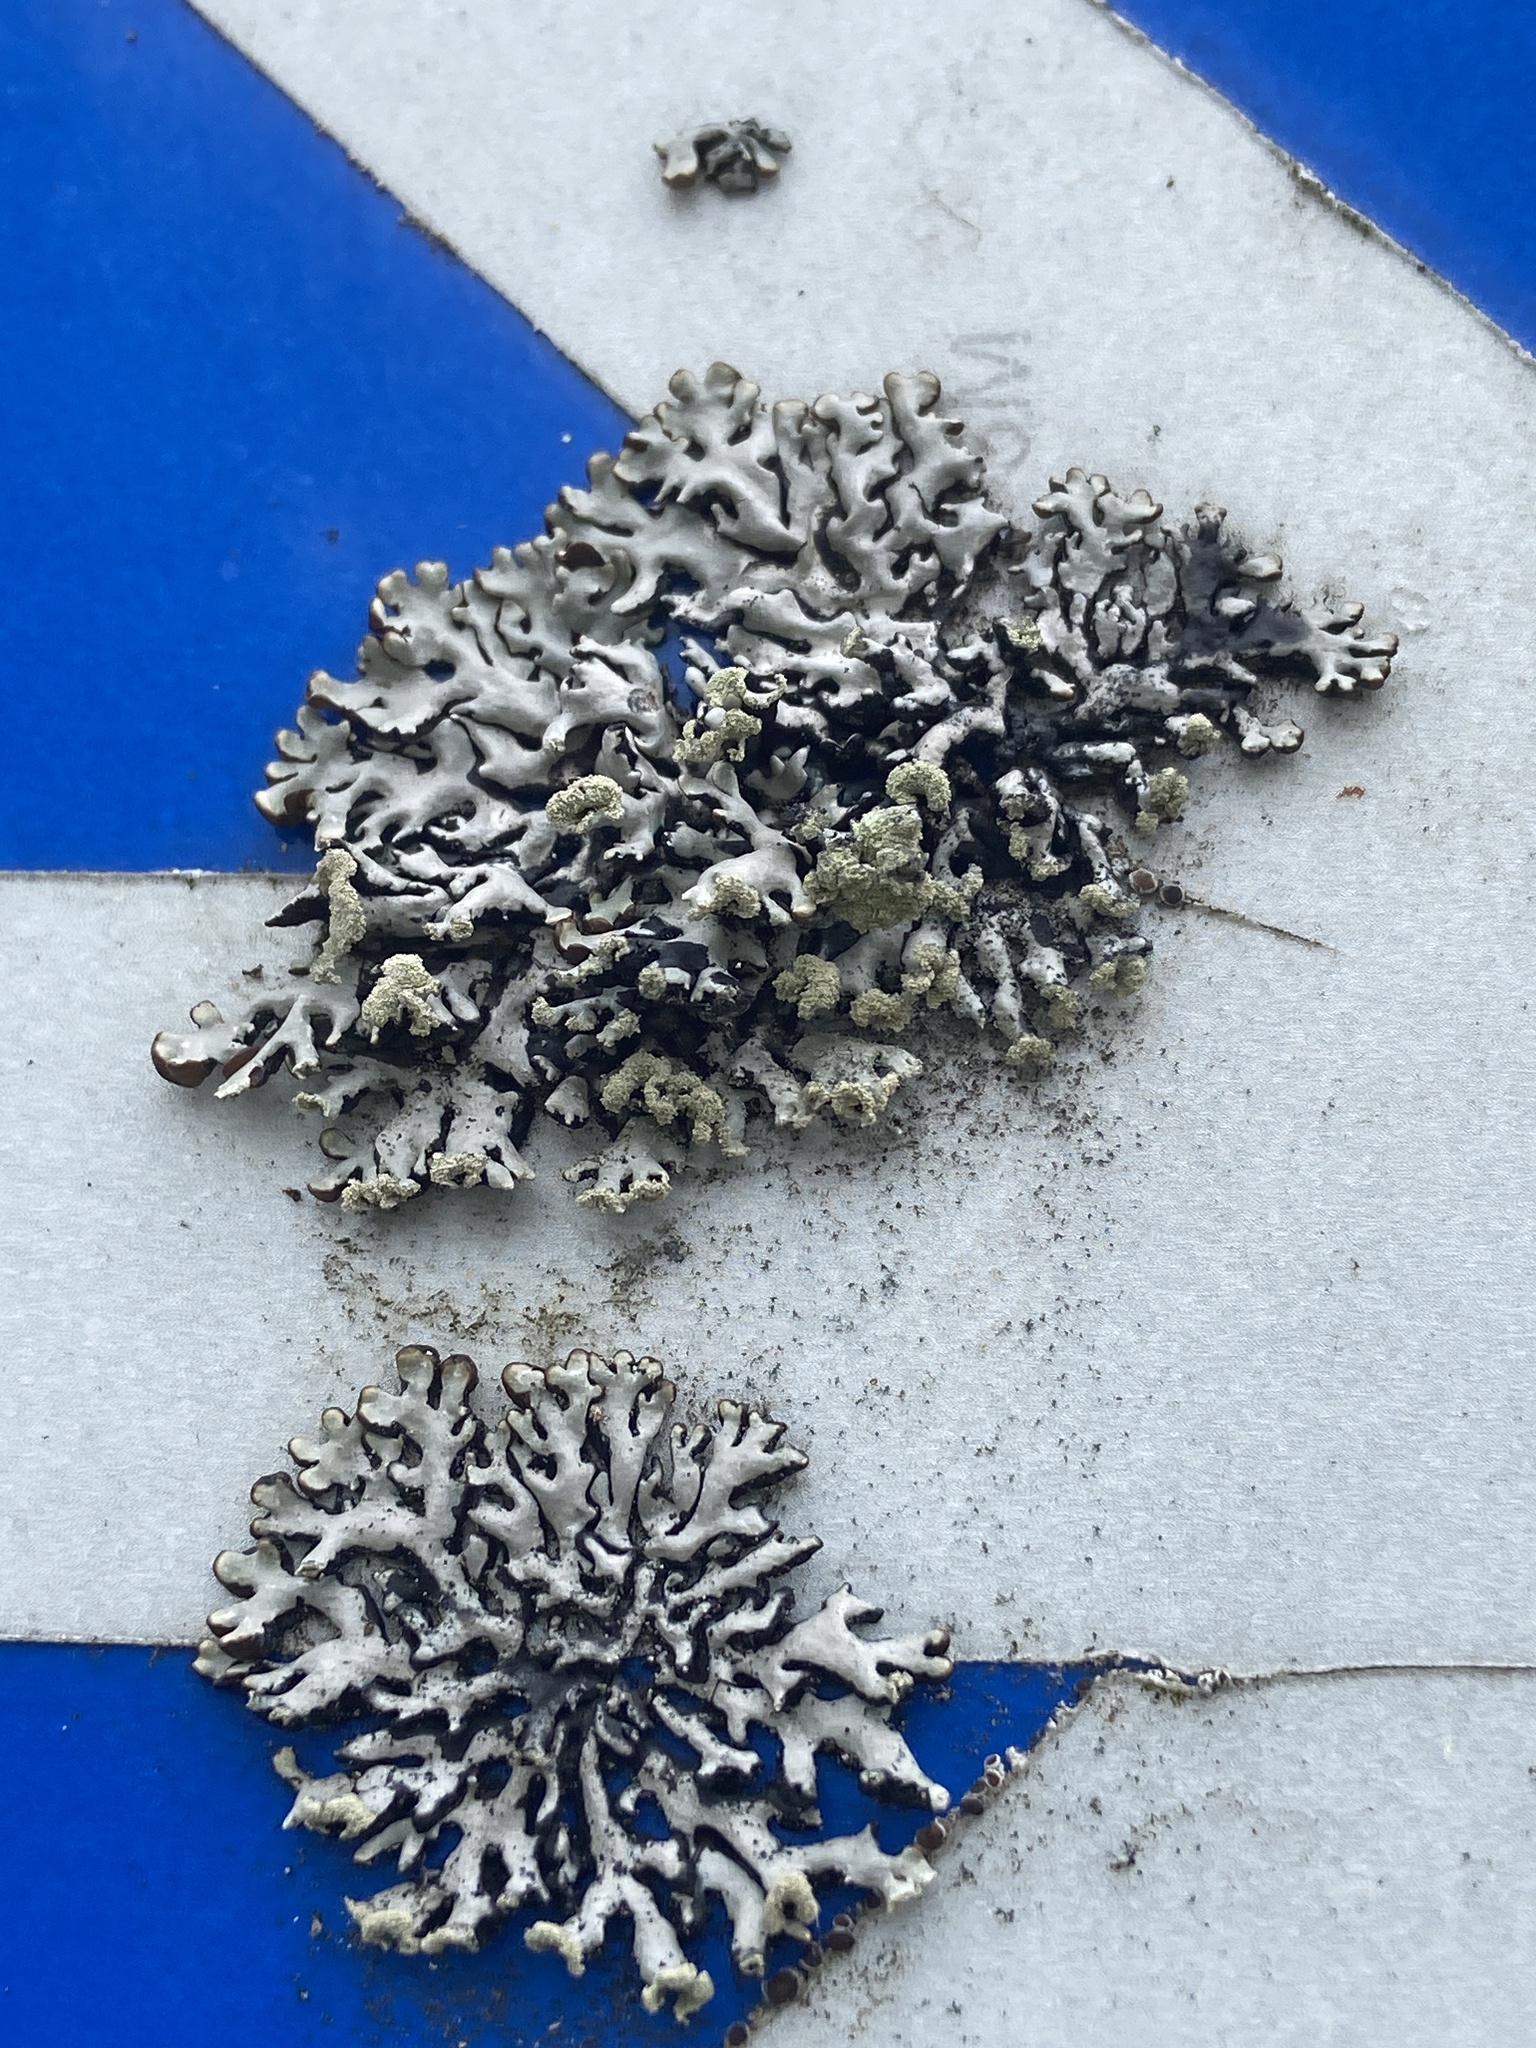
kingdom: Fungi
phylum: Ascomycota
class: Lecanoromycetes
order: Lecanorales
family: Parmeliaceae
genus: Hypogymnia
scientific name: Hypogymnia tubulosa
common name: Powder-headed tube lichen
